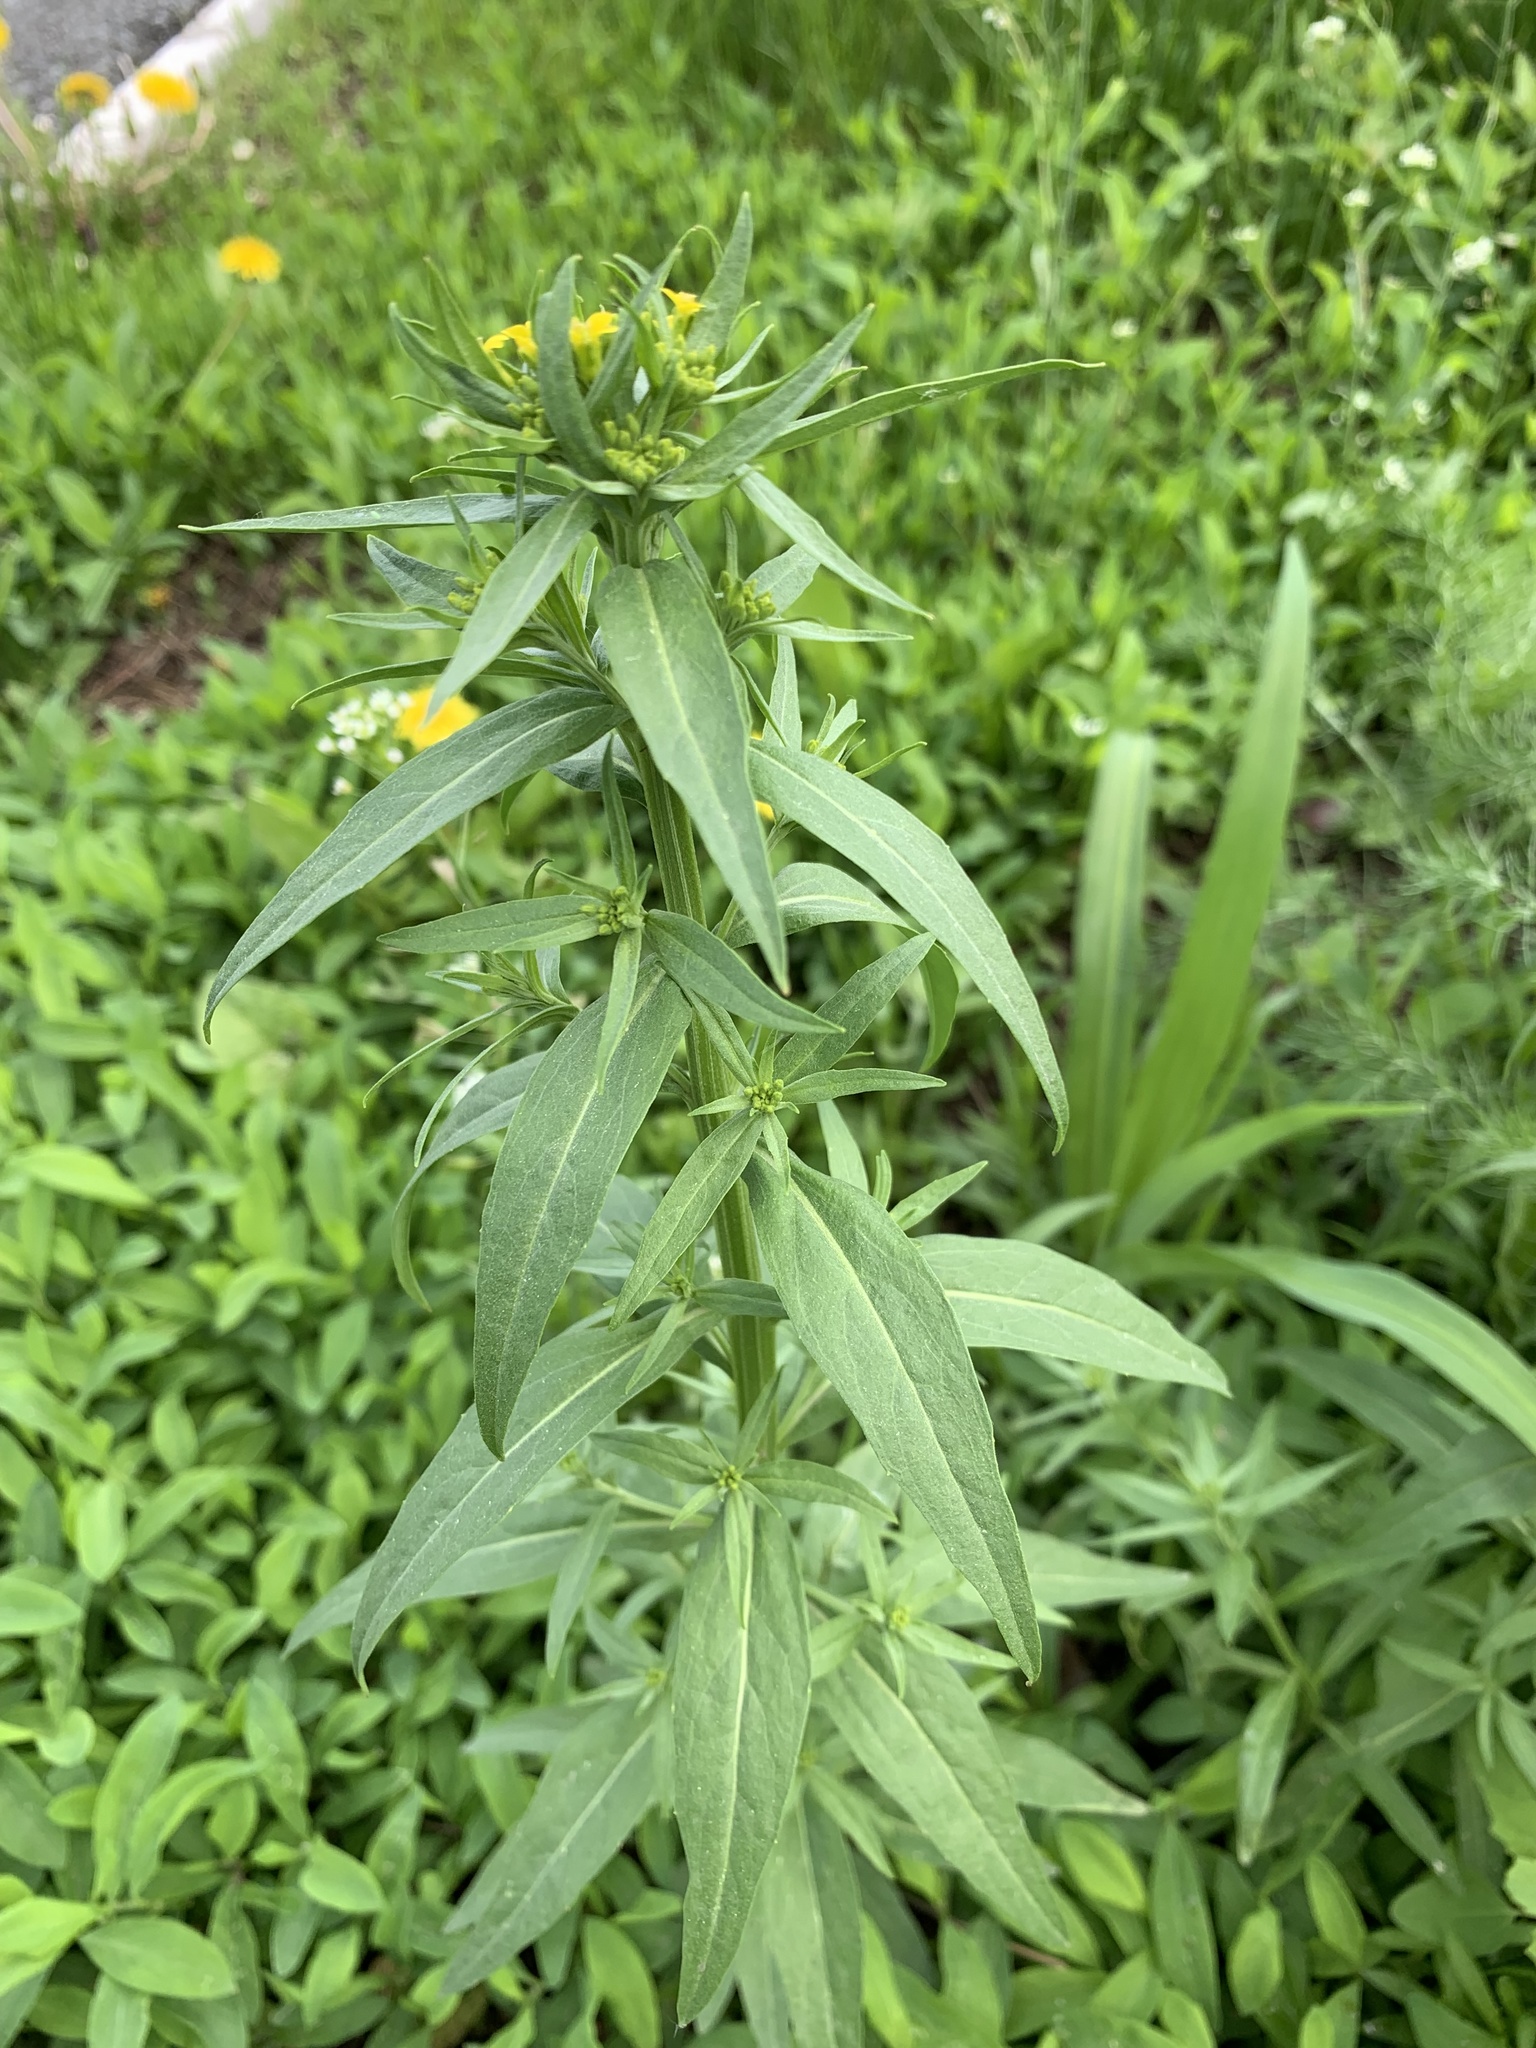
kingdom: Plantae
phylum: Tracheophyta
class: Magnoliopsida
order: Brassicales
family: Brassicaceae
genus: Erysimum
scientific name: Erysimum cheiranthoides
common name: Treacle mustard
